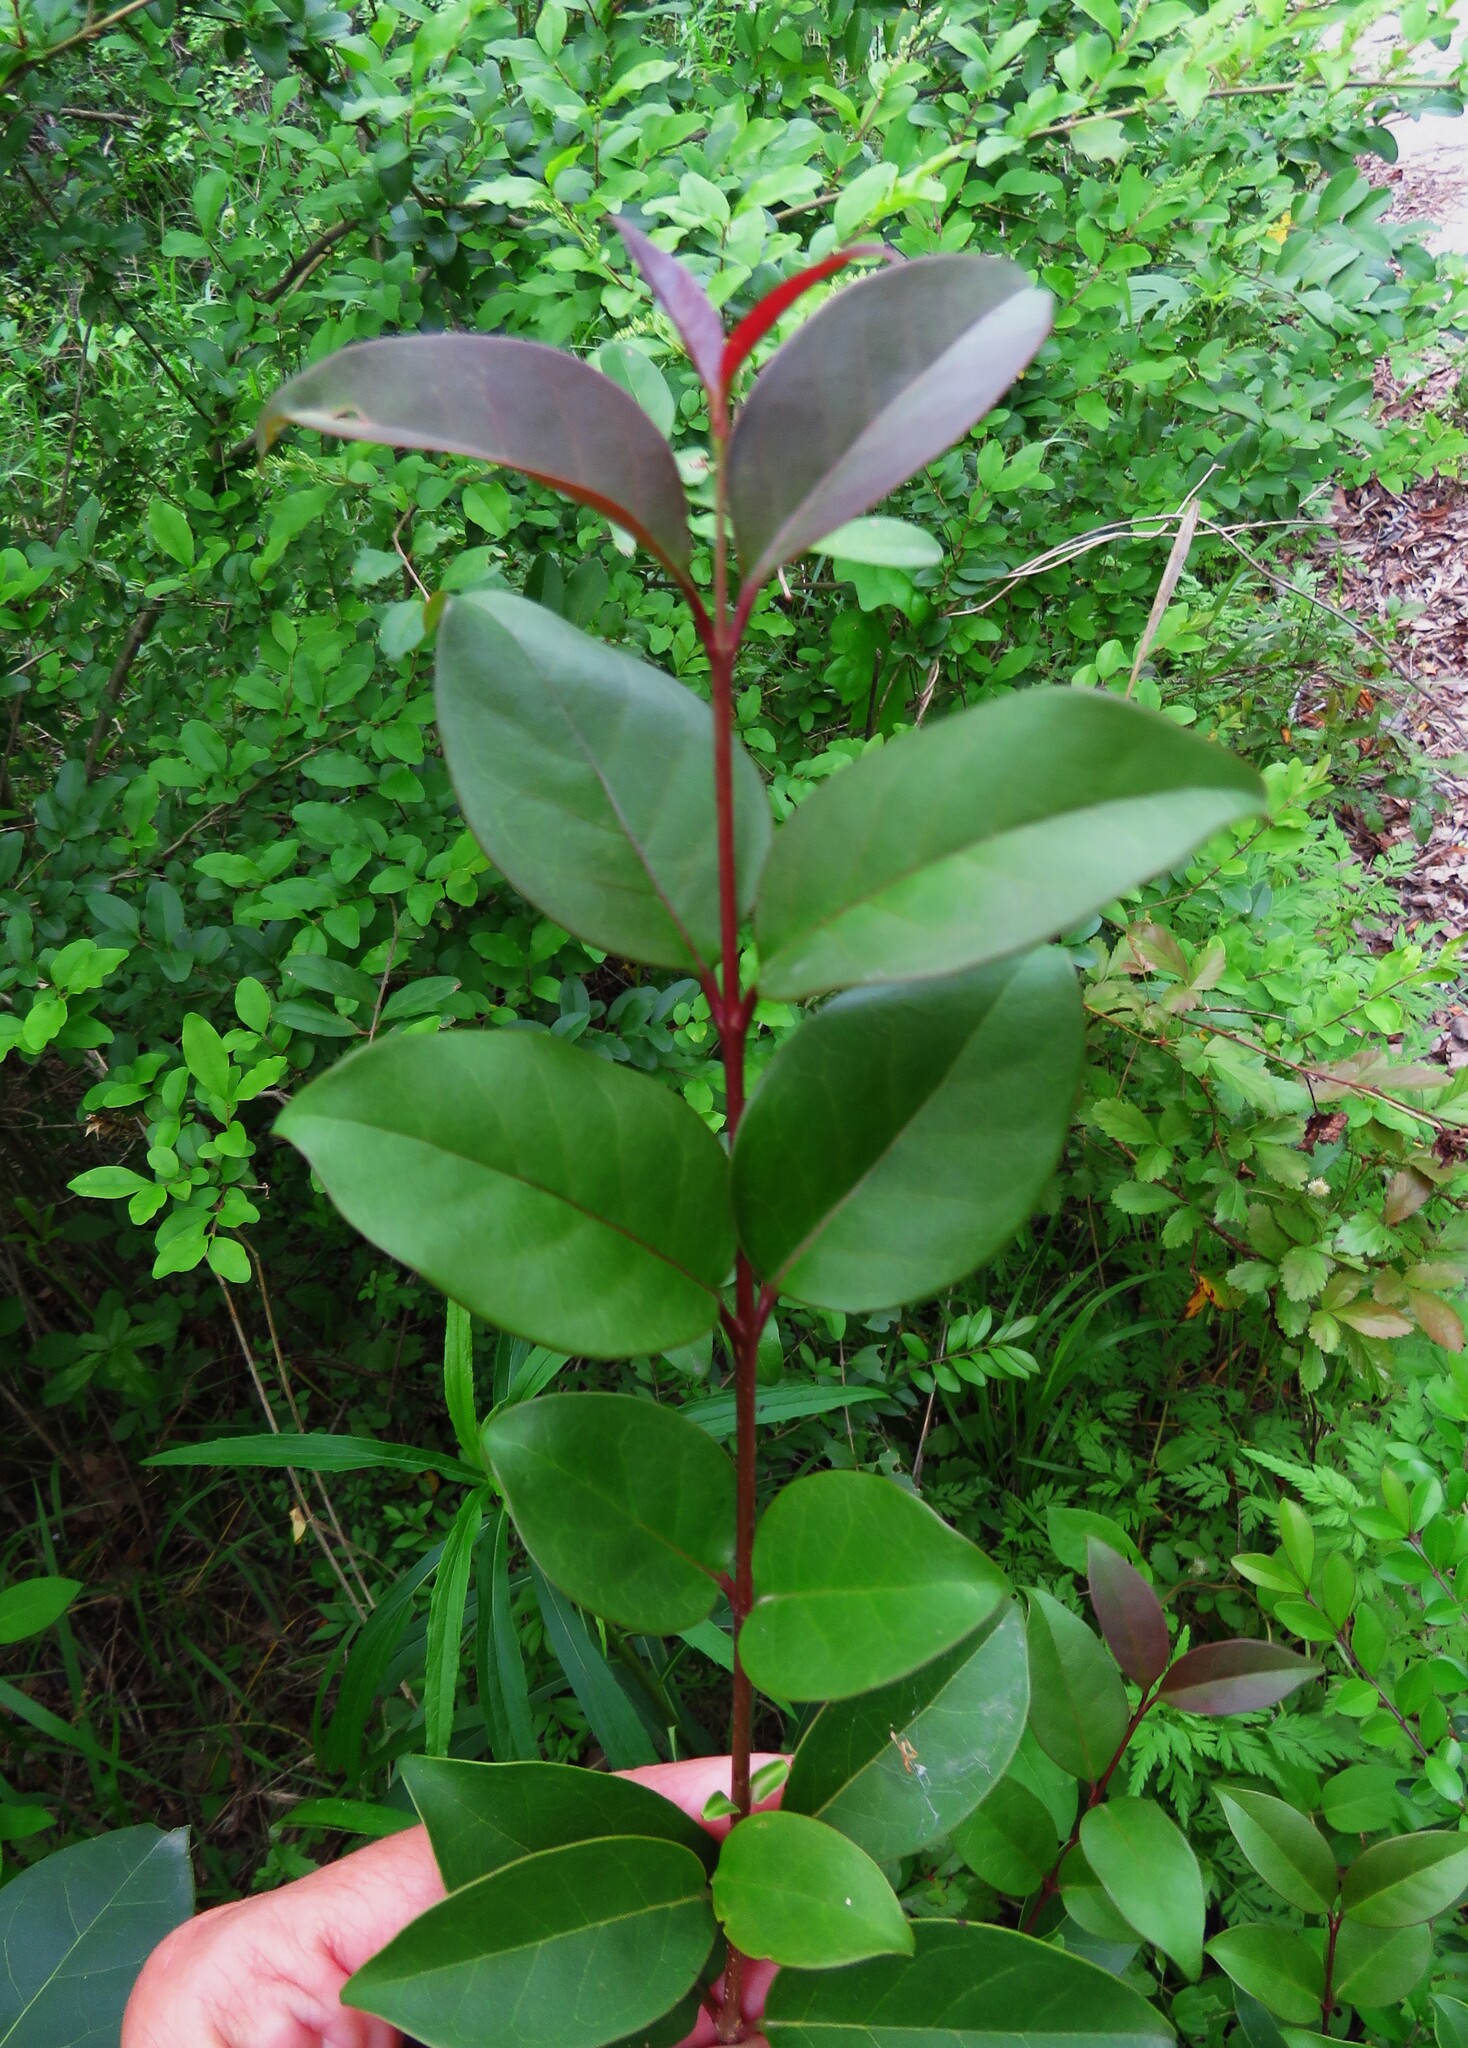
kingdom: Plantae
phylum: Tracheophyta
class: Magnoliopsida
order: Lamiales
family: Oleaceae
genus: Ligustrum
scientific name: Ligustrum lucidum
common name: Glossy privet
